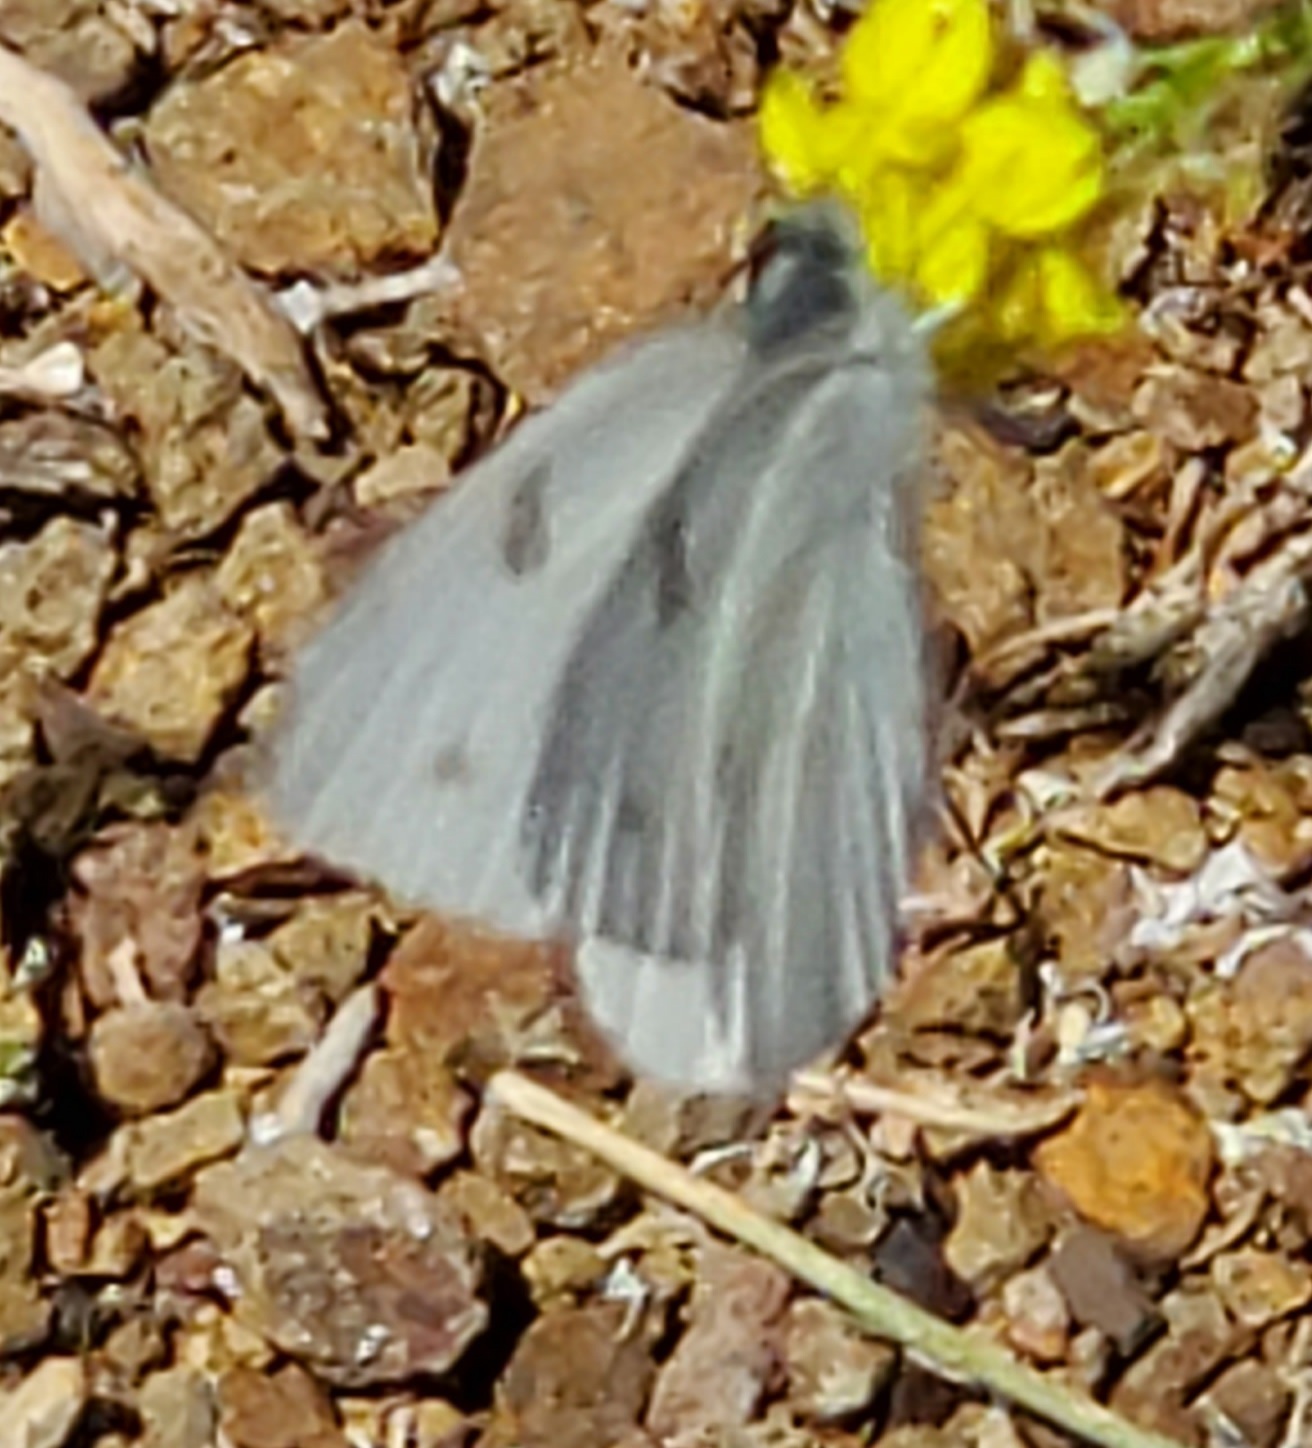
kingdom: Animalia
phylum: Arthropoda
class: Insecta
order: Lepidoptera
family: Pieridae
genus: Pontia
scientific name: Pontia protodice
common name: Checkered white
